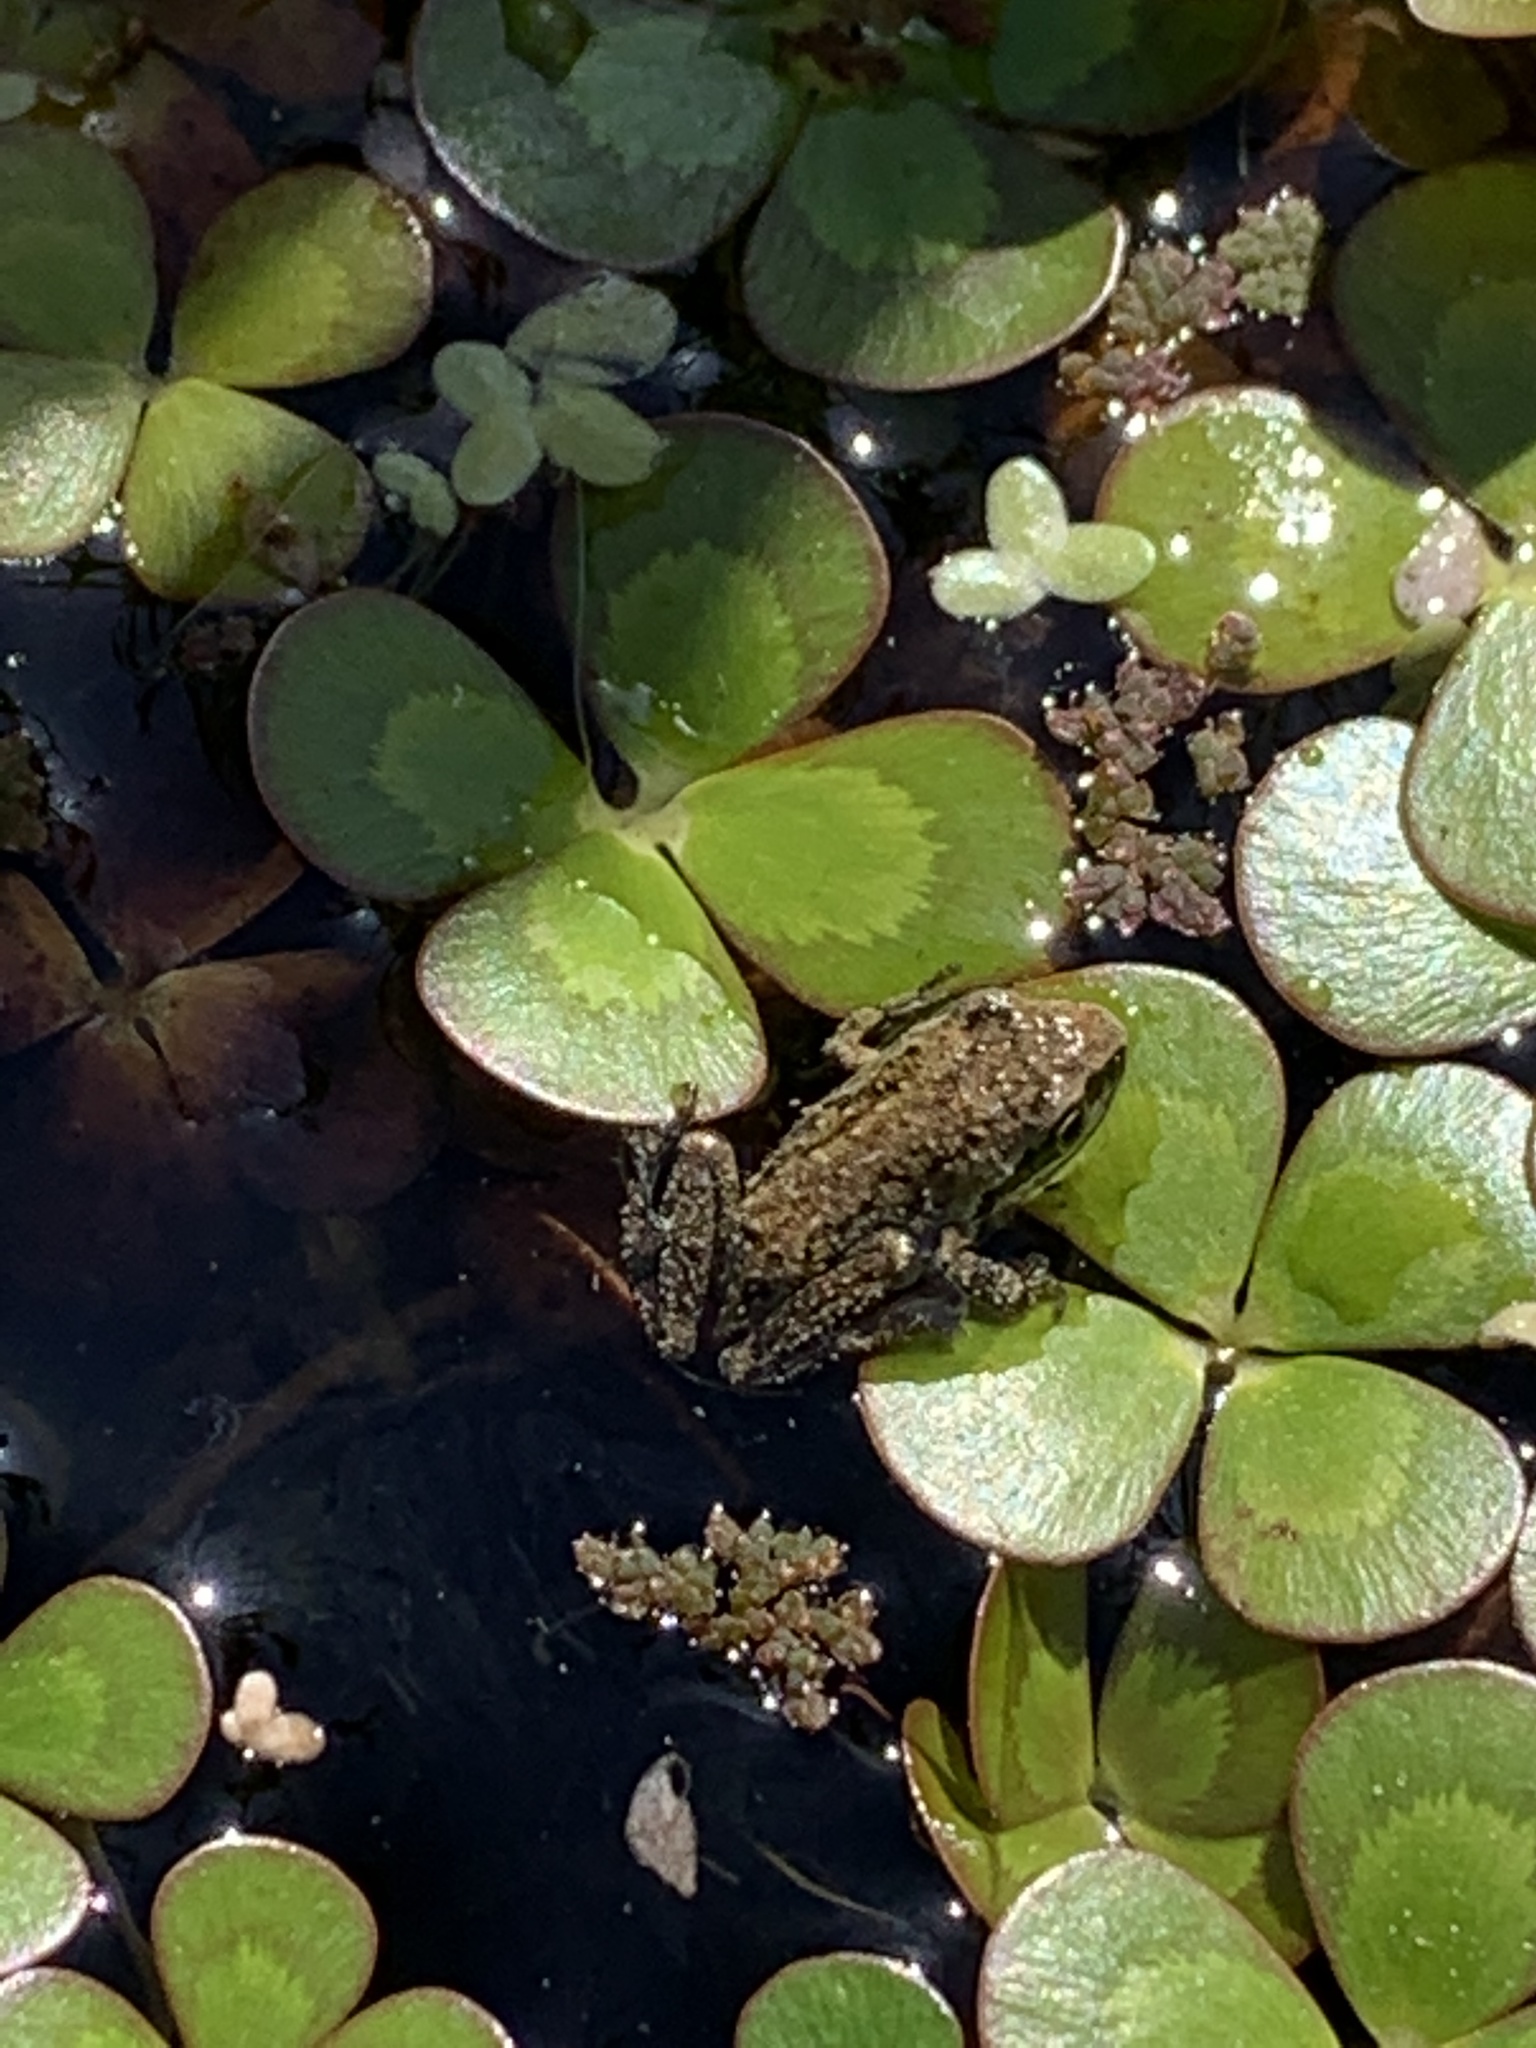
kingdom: Animalia
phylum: Chordata
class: Amphibia
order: Anura
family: Hylidae
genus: Pseudacris
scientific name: Pseudacris regilla
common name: Pacific chorus frog
